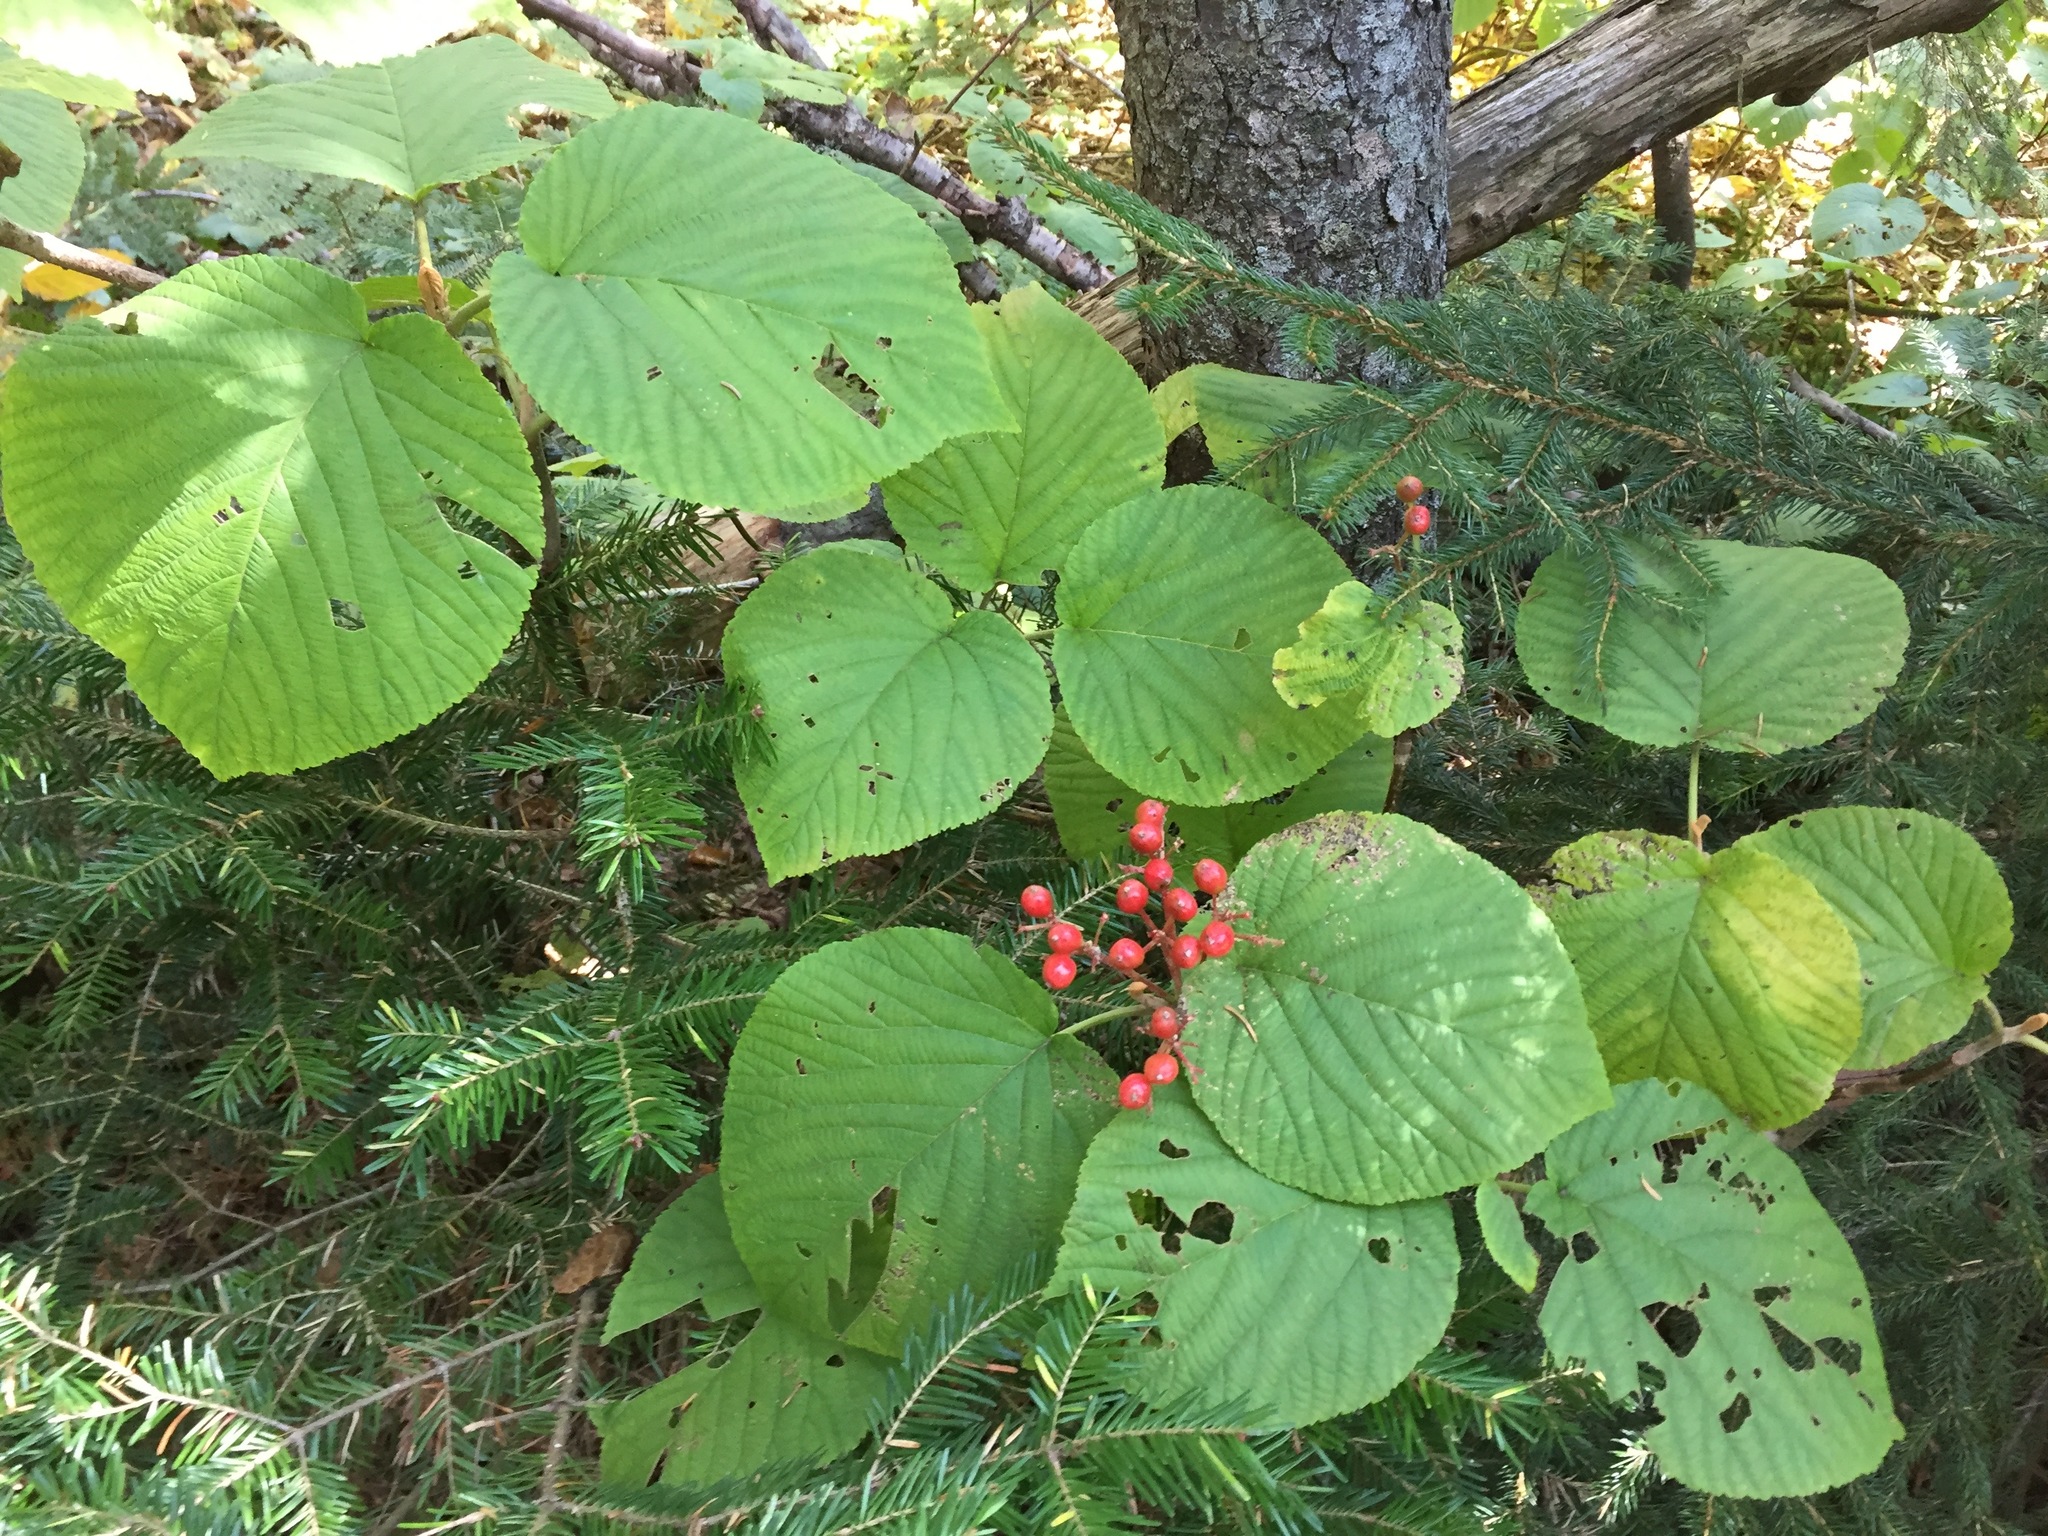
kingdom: Plantae
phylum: Tracheophyta
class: Magnoliopsida
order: Dipsacales
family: Viburnaceae
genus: Viburnum
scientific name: Viburnum lantanoides
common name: Hobblebush
